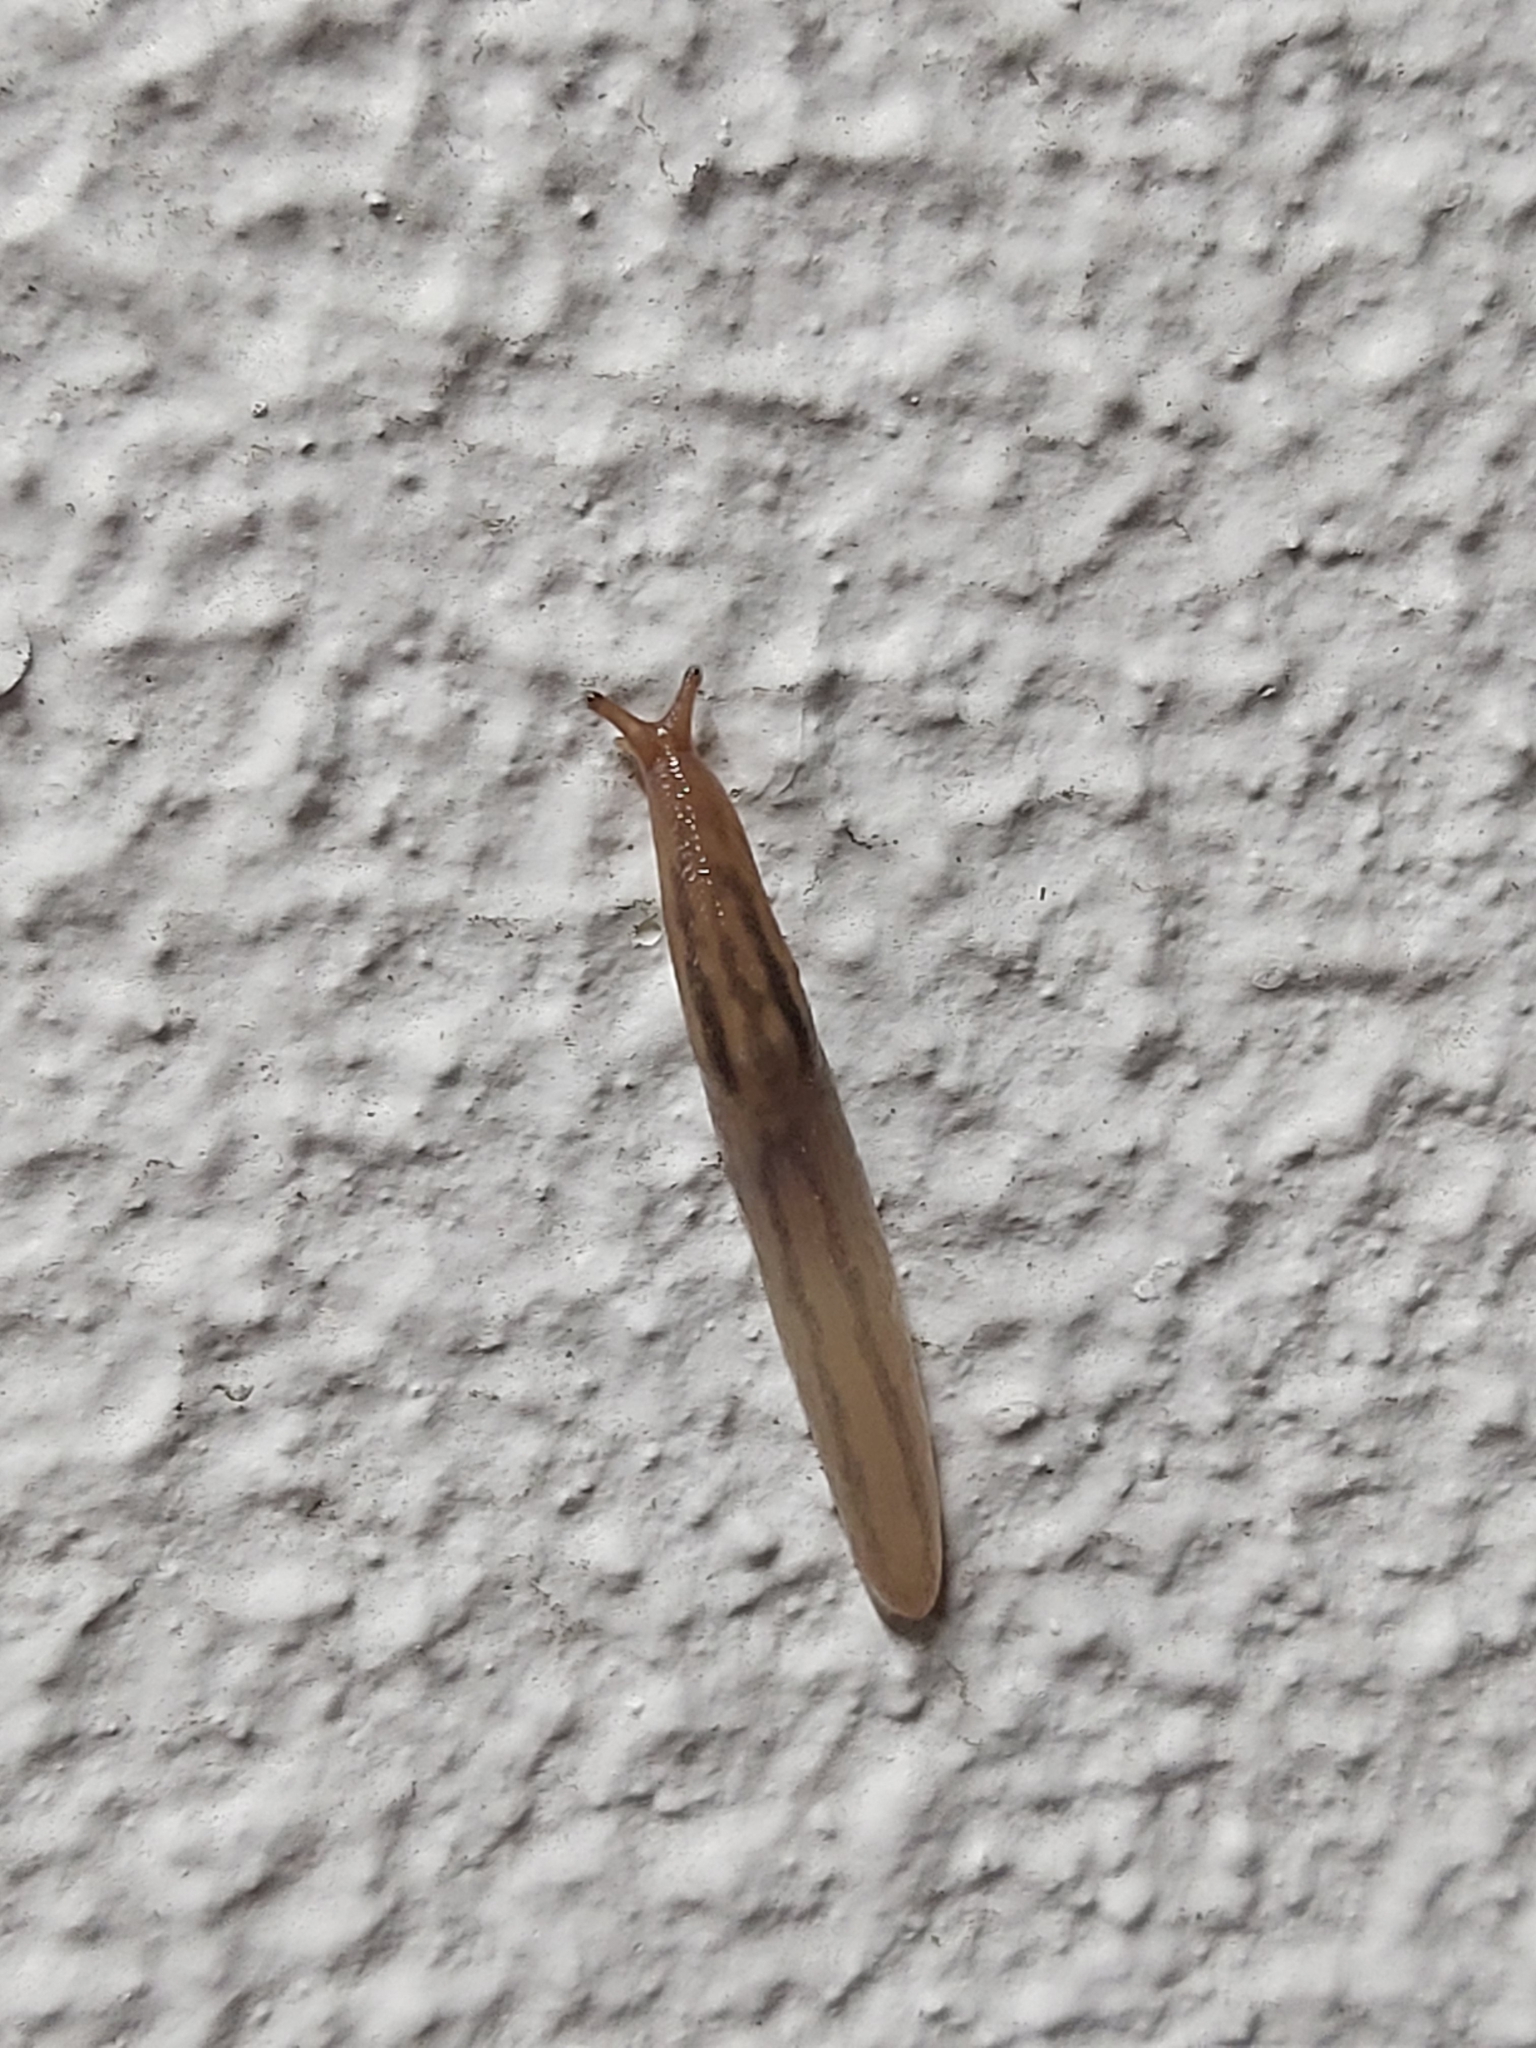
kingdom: Animalia
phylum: Mollusca
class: Gastropoda
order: Stylommatophora
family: Limacidae
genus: Ambigolimax
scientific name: Ambigolimax
